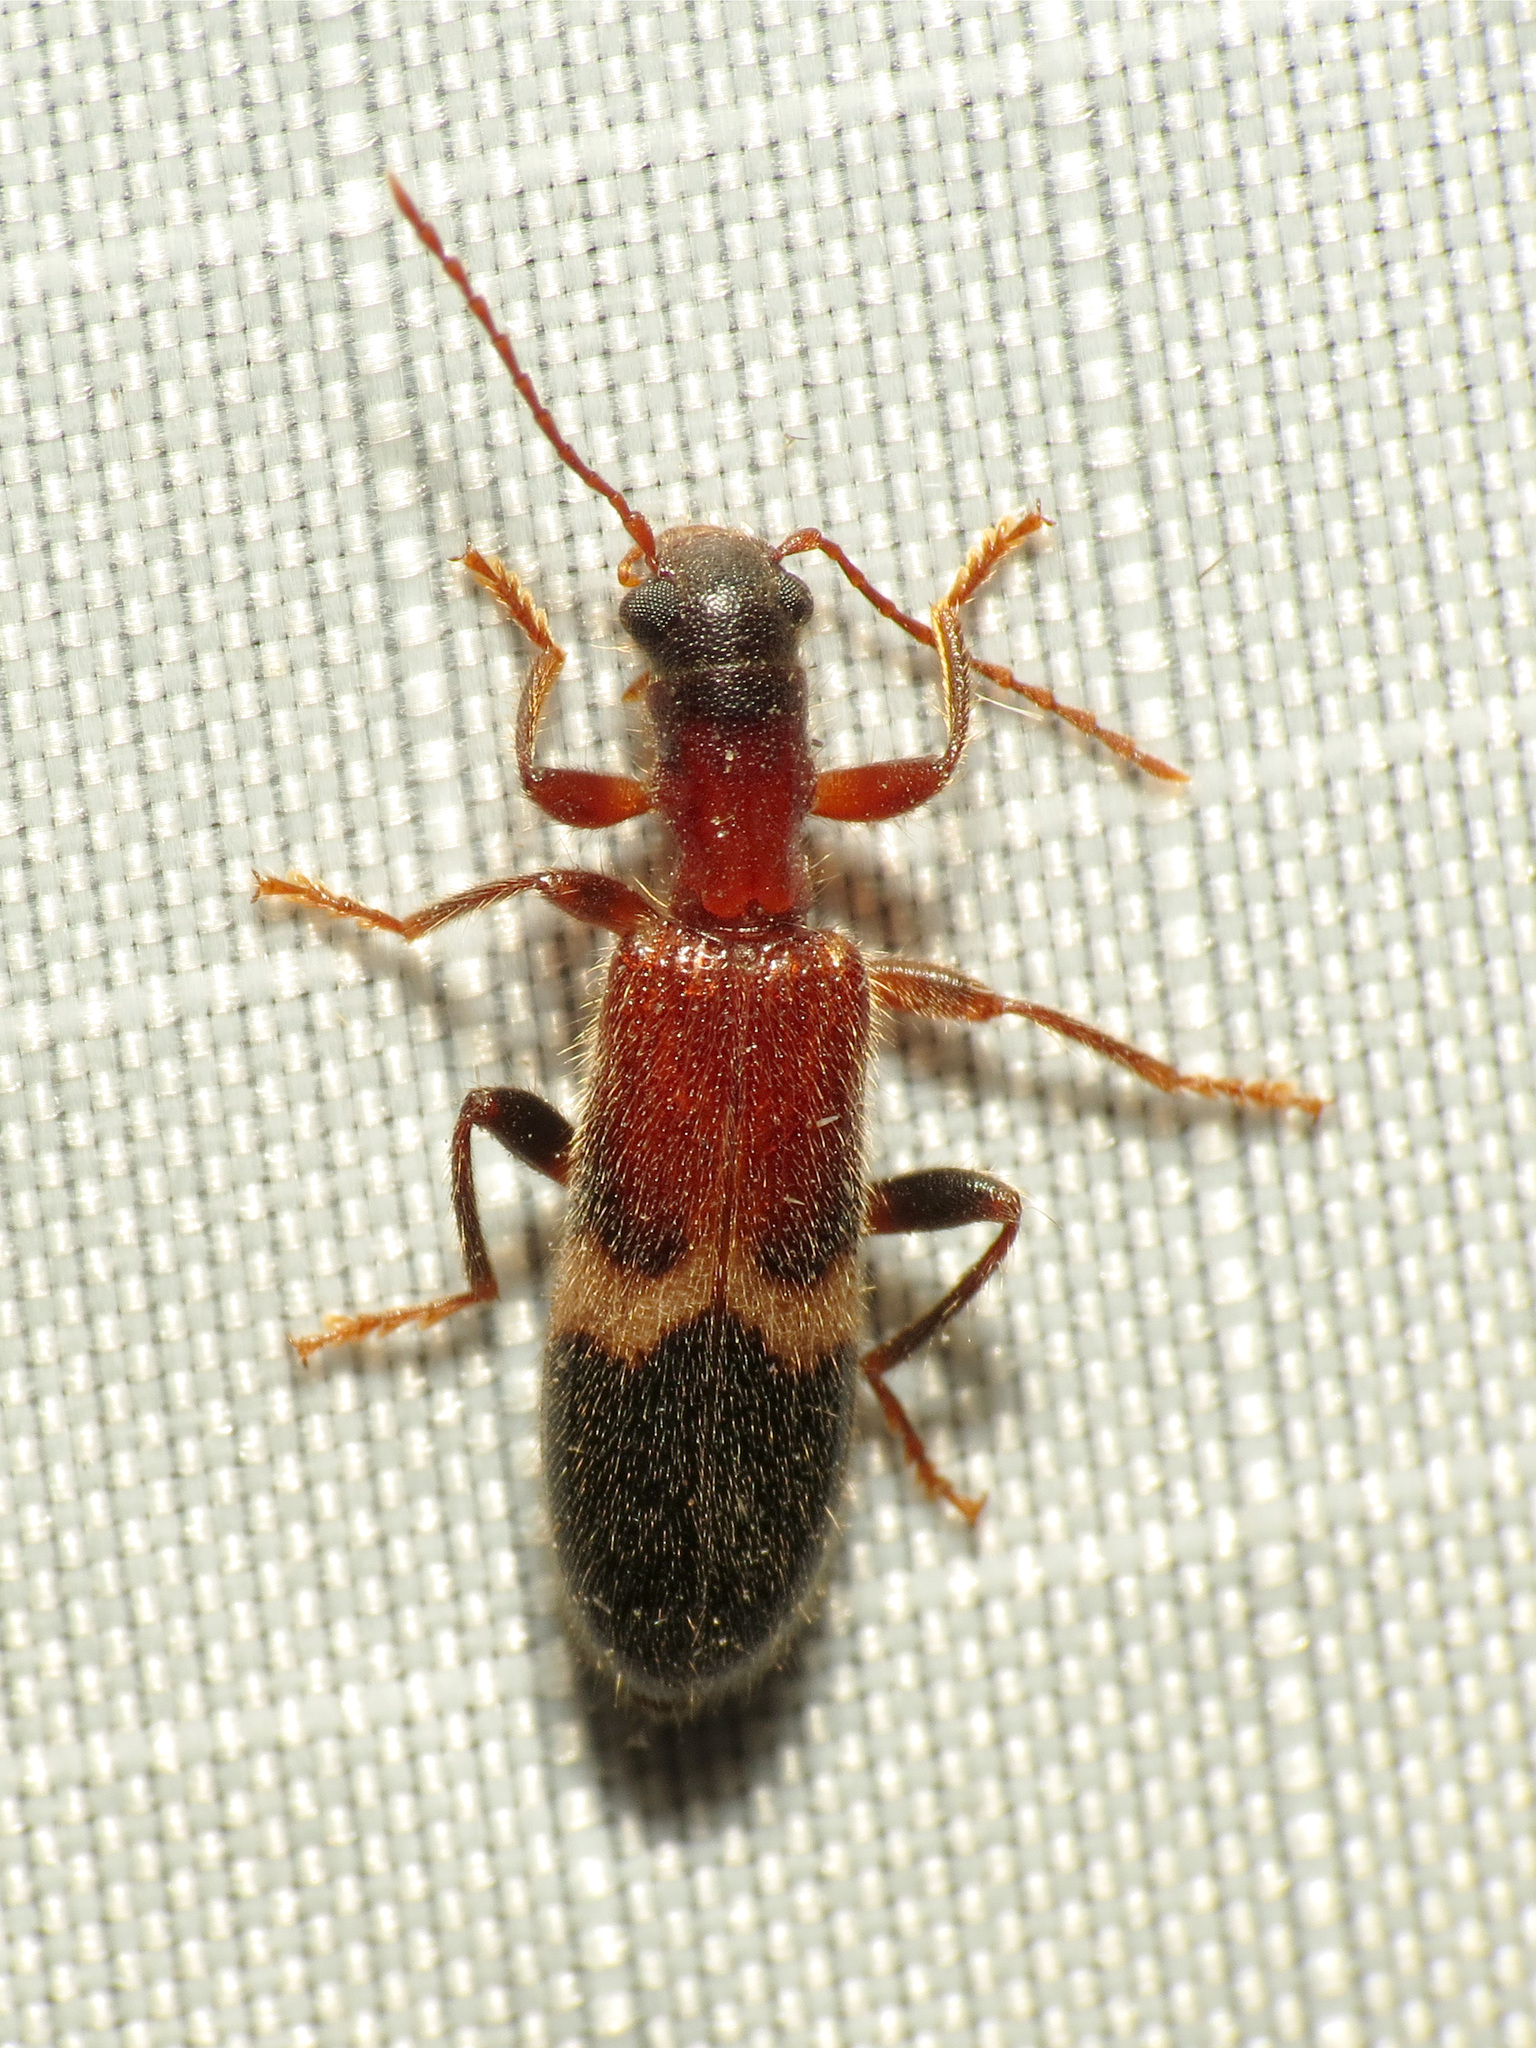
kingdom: Animalia
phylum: Arthropoda
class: Insecta
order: Coleoptera
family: Cleridae
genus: Cymatodera
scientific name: Cymatodera tricolor
